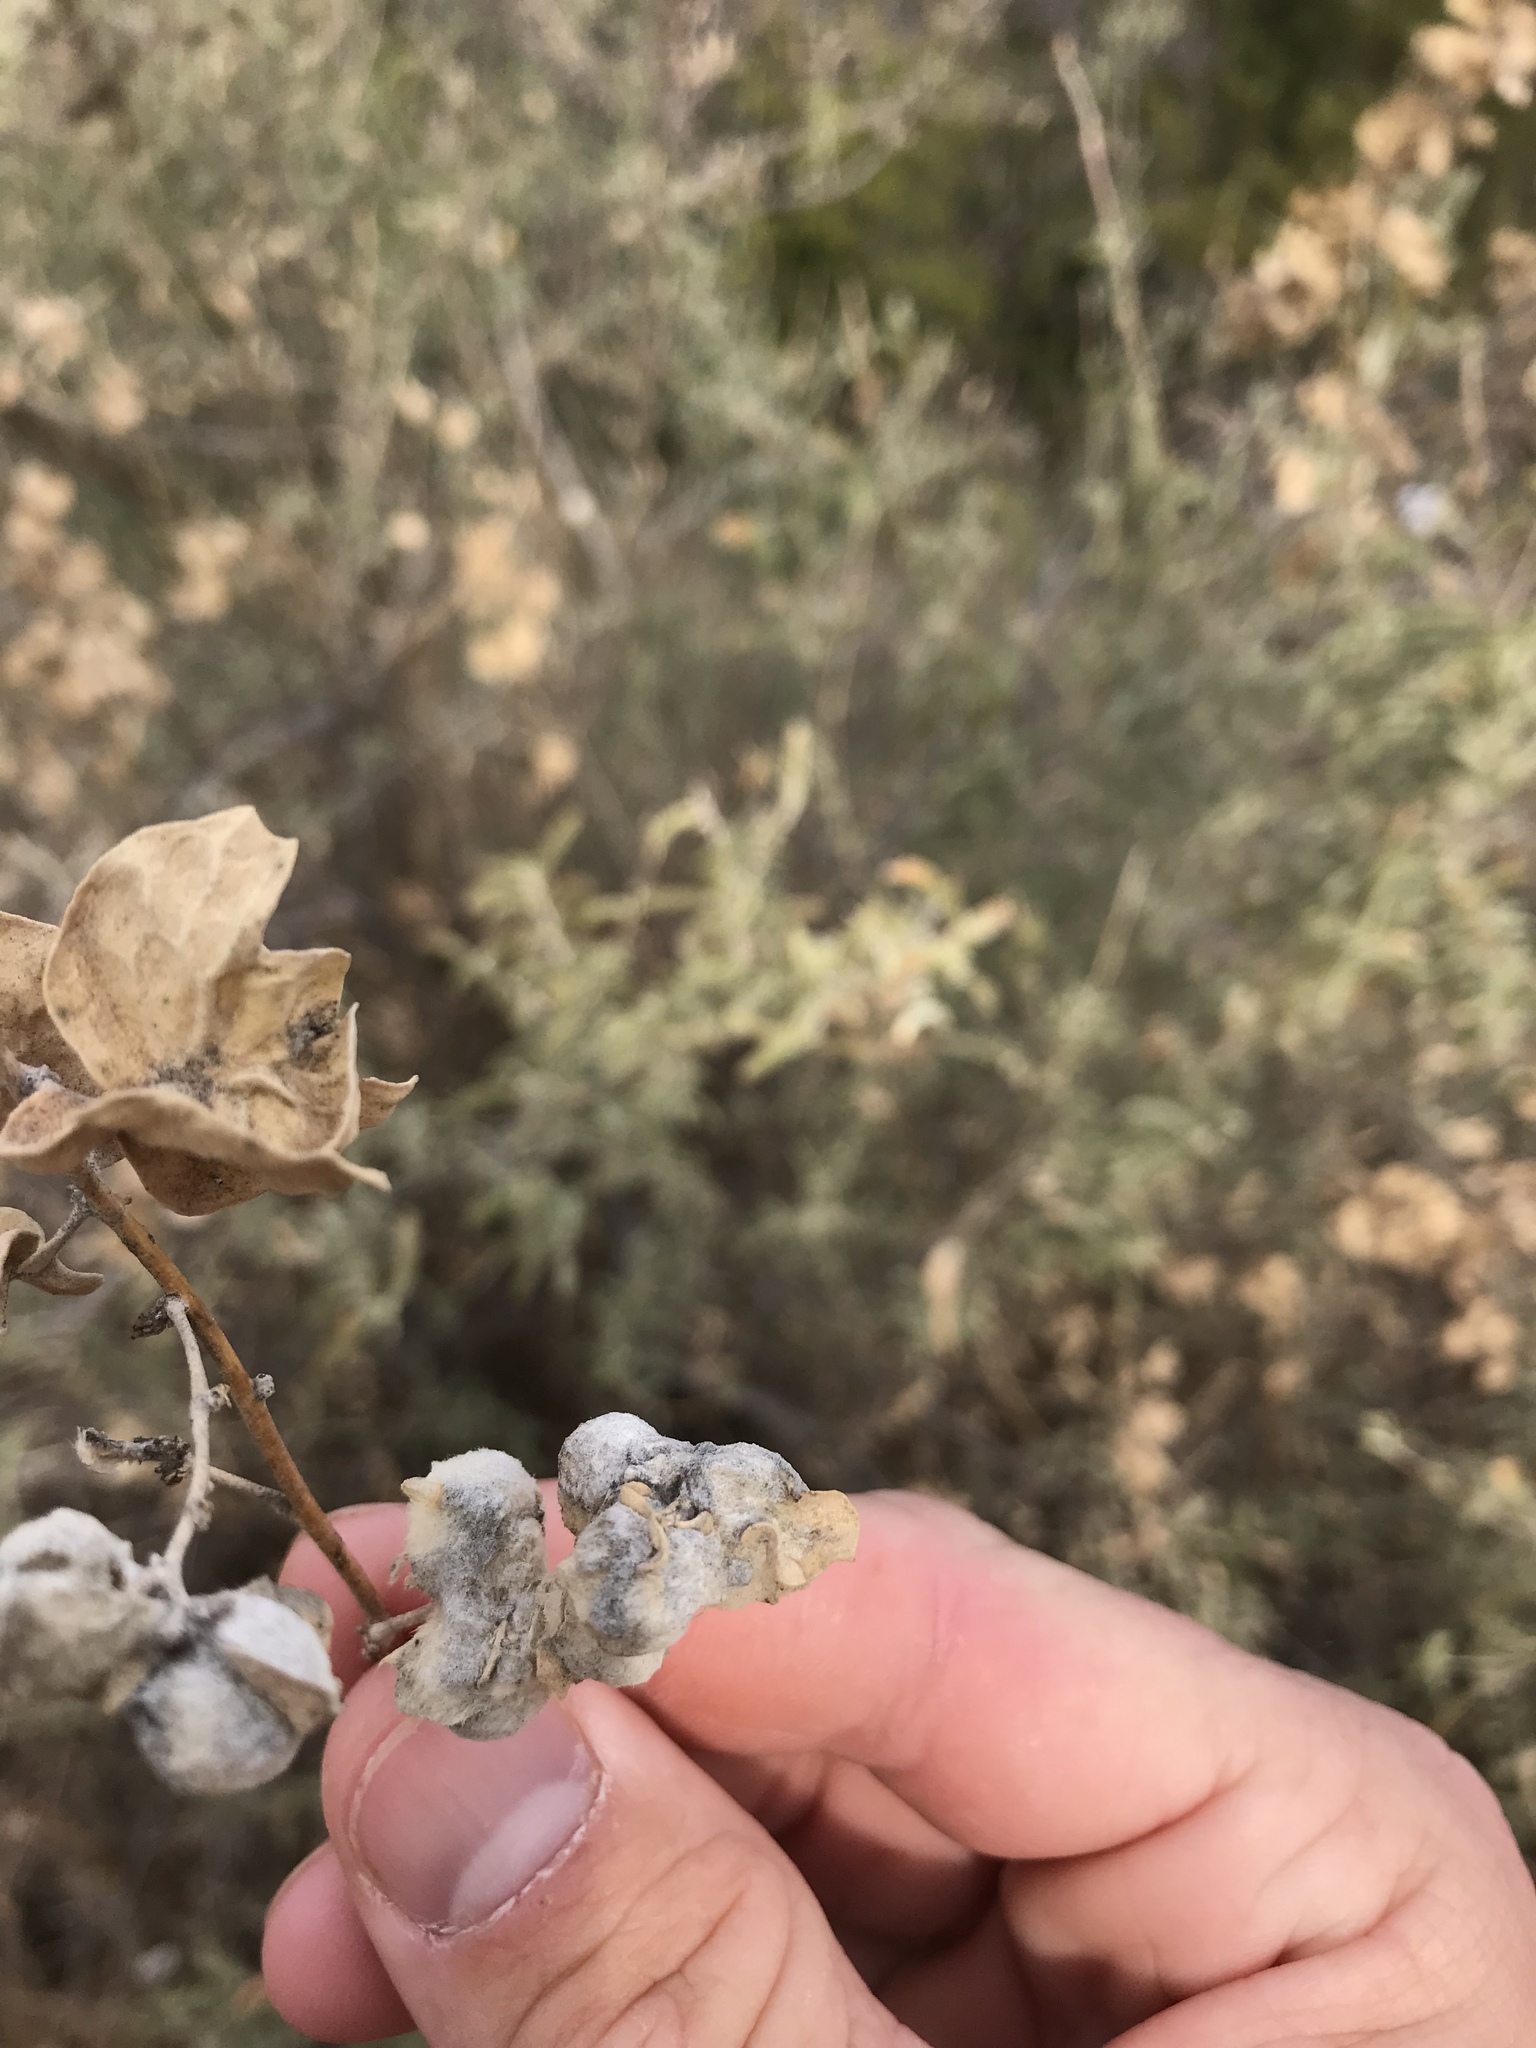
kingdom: Plantae
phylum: Tracheophyta
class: Magnoliopsida
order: Caryophyllales
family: Amaranthaceae
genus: Atriplex
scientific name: Atriplex canescens
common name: Four-wing saltbush
